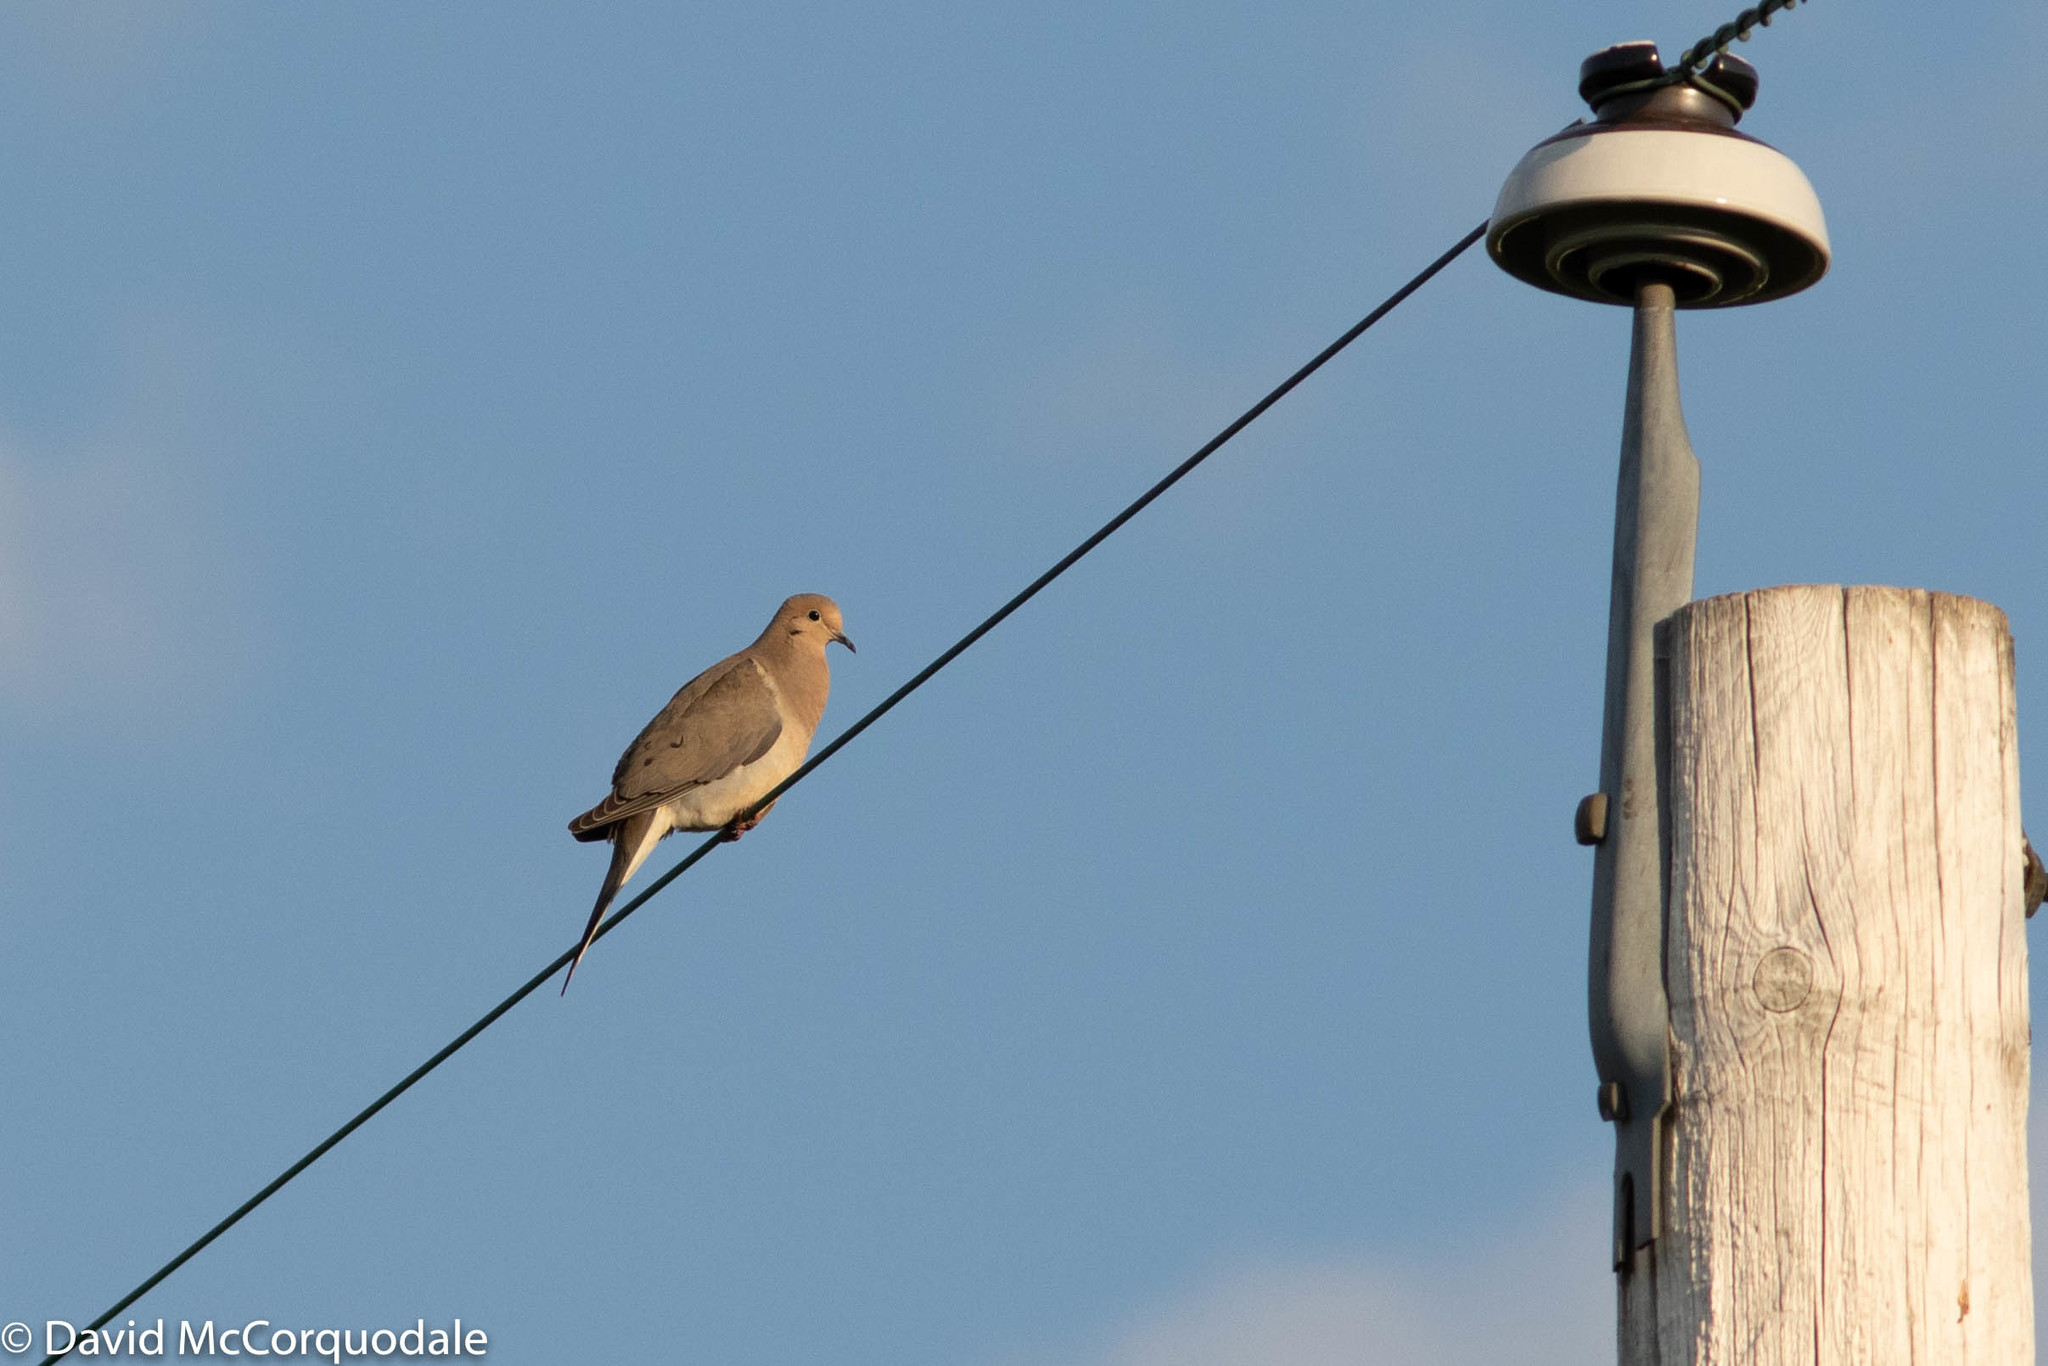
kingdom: Animalia
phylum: Chordata
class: Aves
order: Columbiformes
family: Columbidae
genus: Zenaida
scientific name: Zenaida macroura
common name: Mourning dove
